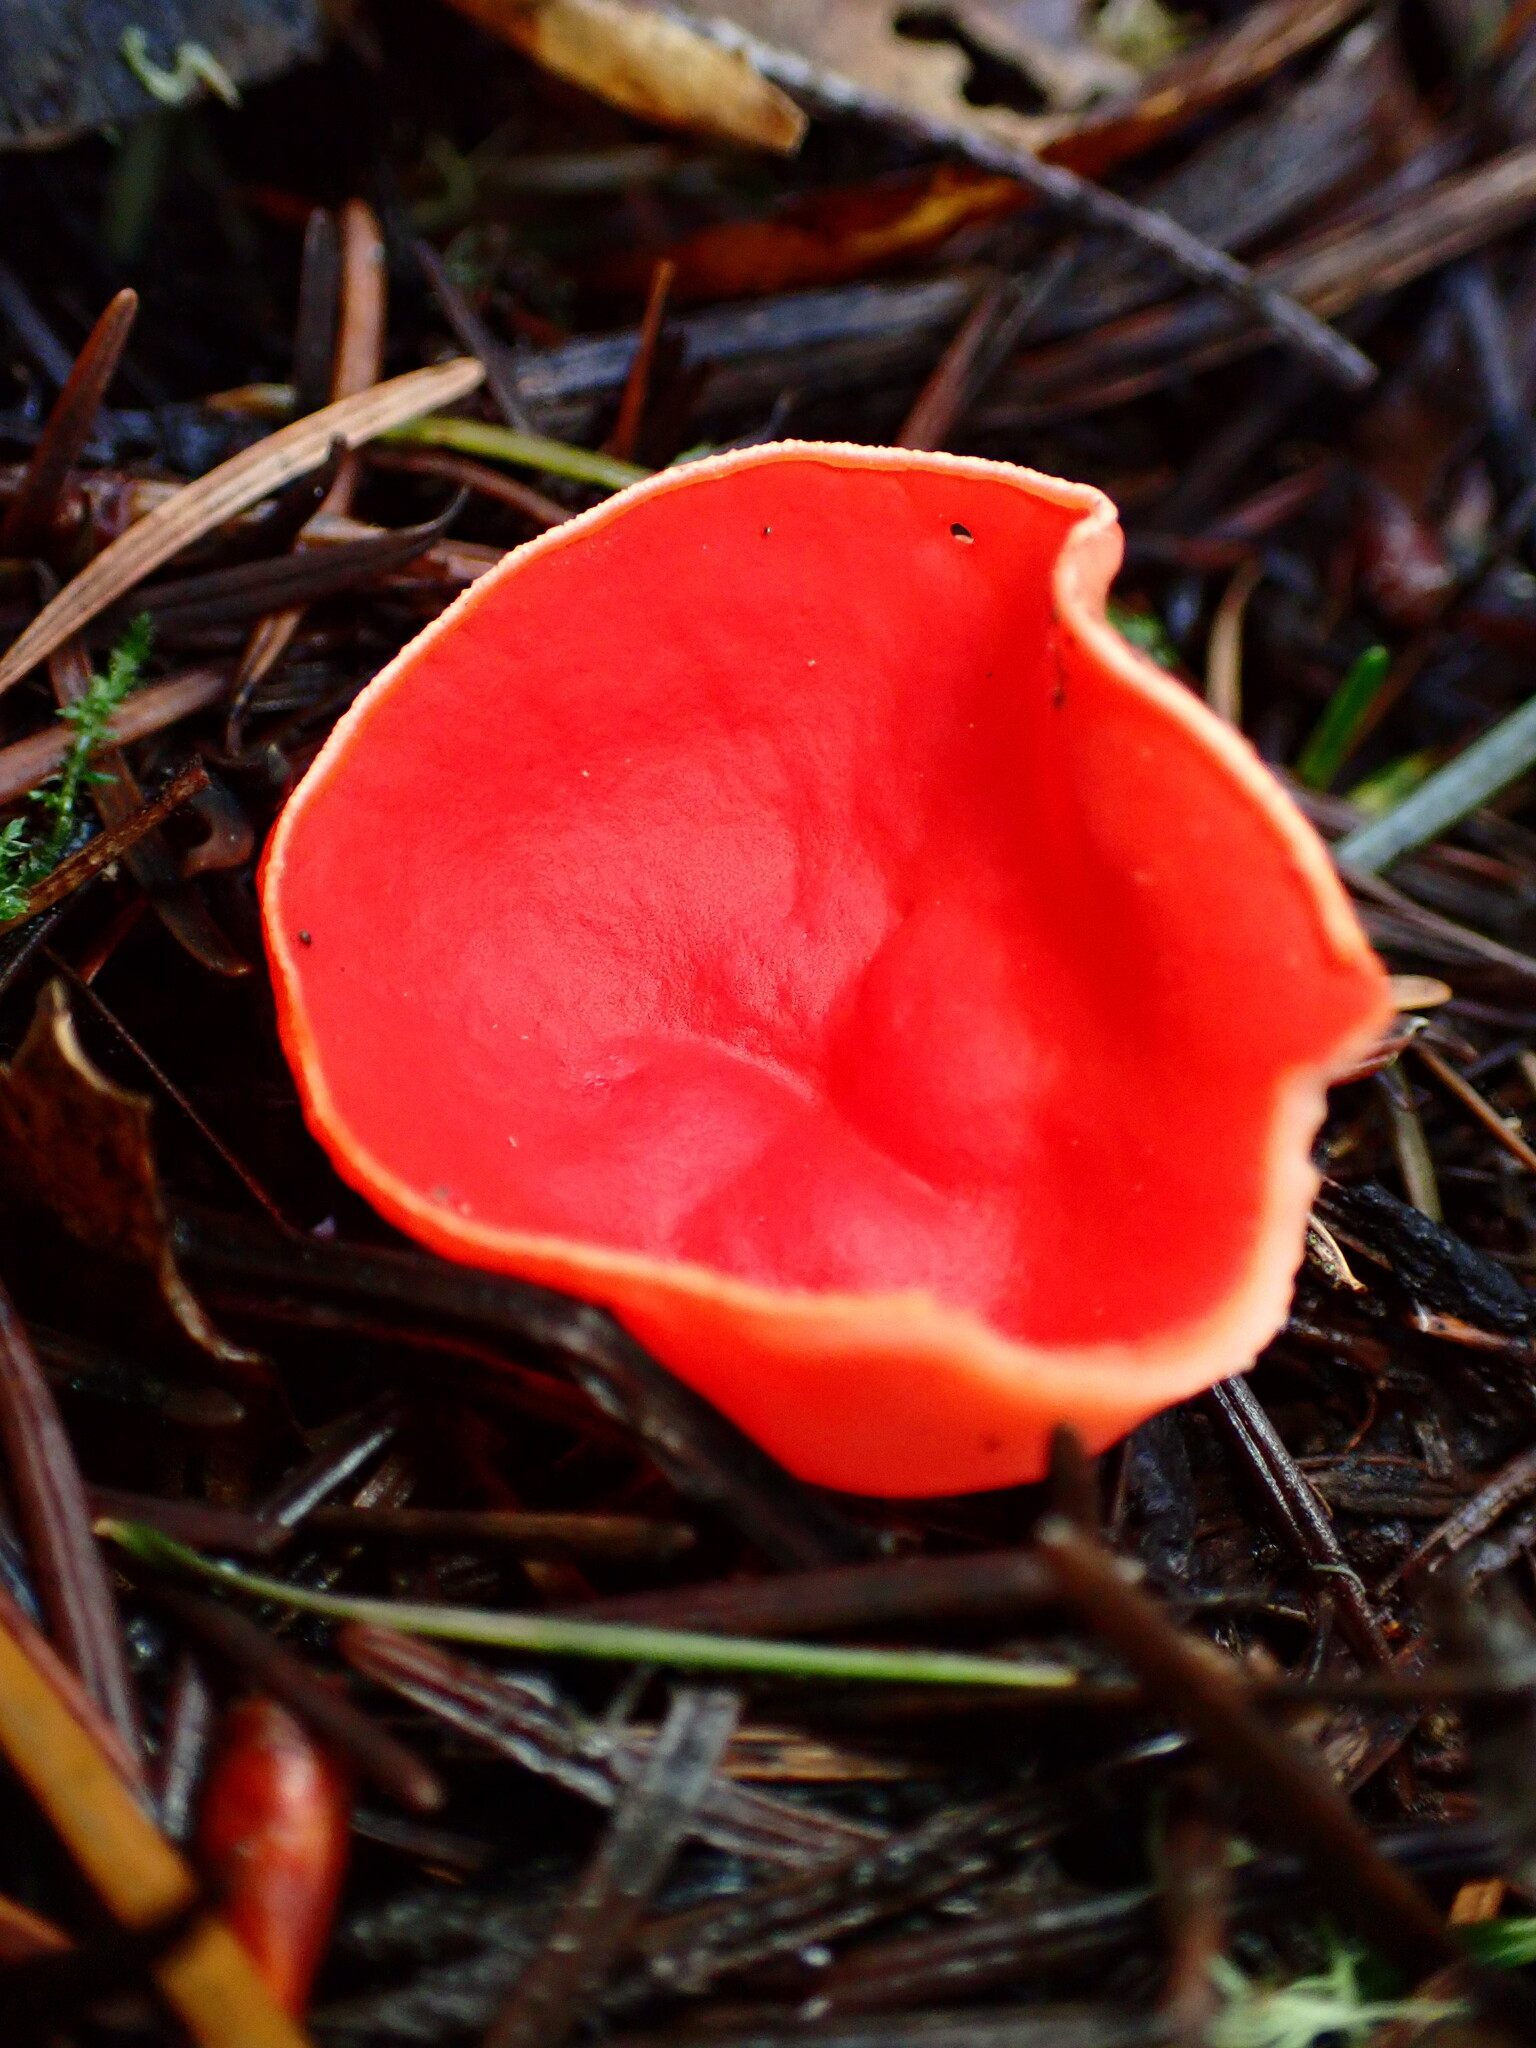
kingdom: Fungi
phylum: Ascomycota
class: Pezizomycetes
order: Pezizales
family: Sarcoscyphaceae
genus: Sarcoscypha
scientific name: Sarcoscypha coccinea
